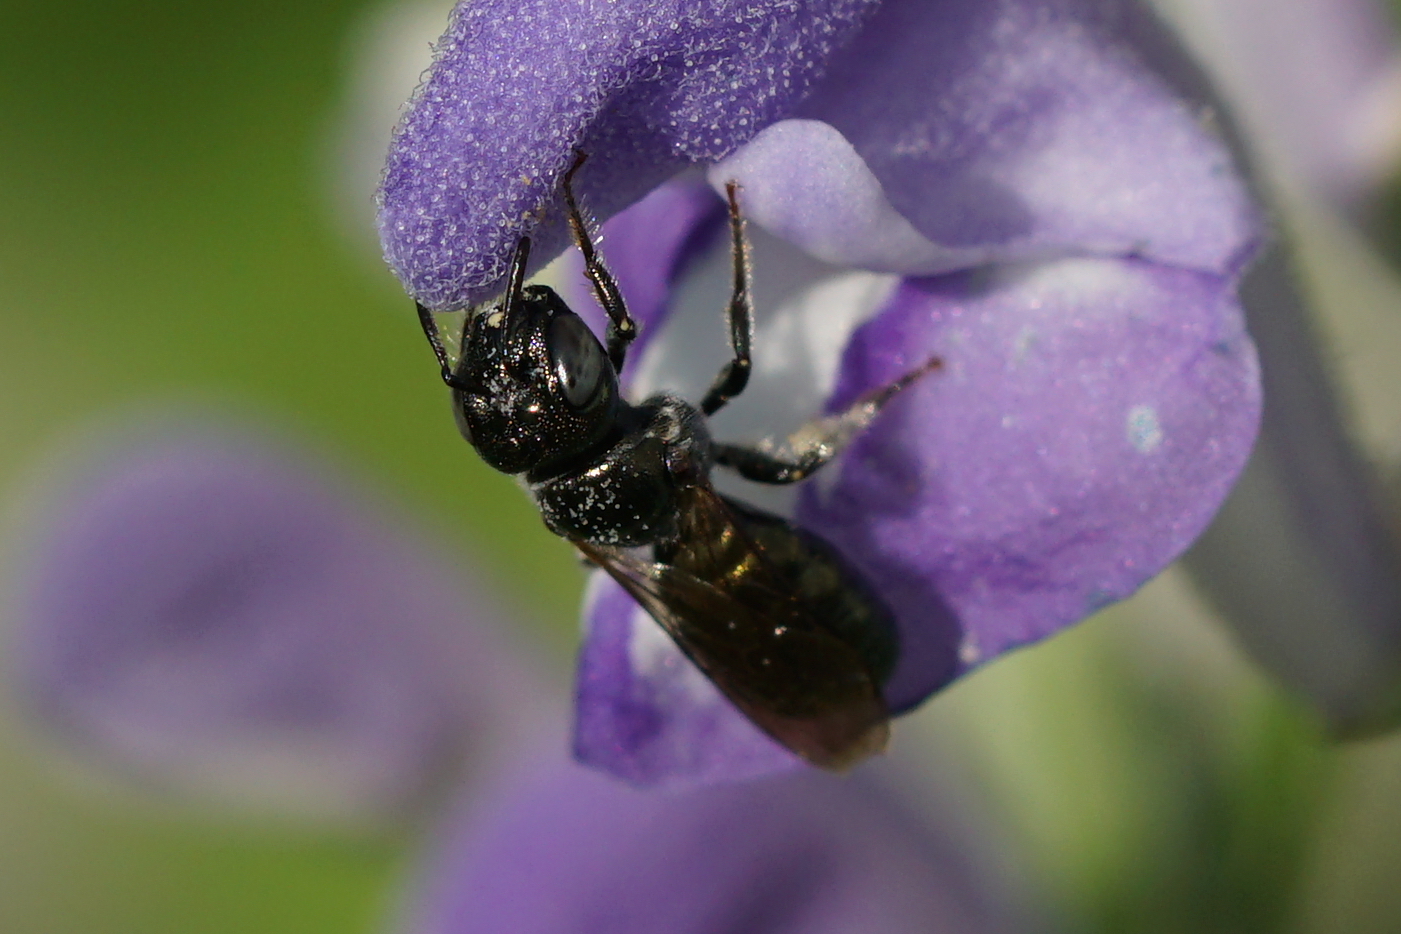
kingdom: Animalia
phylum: Arthropoda
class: Insecta
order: Hymenoptera
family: Apidae
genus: Zadontomerus
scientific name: Zadontomerus
